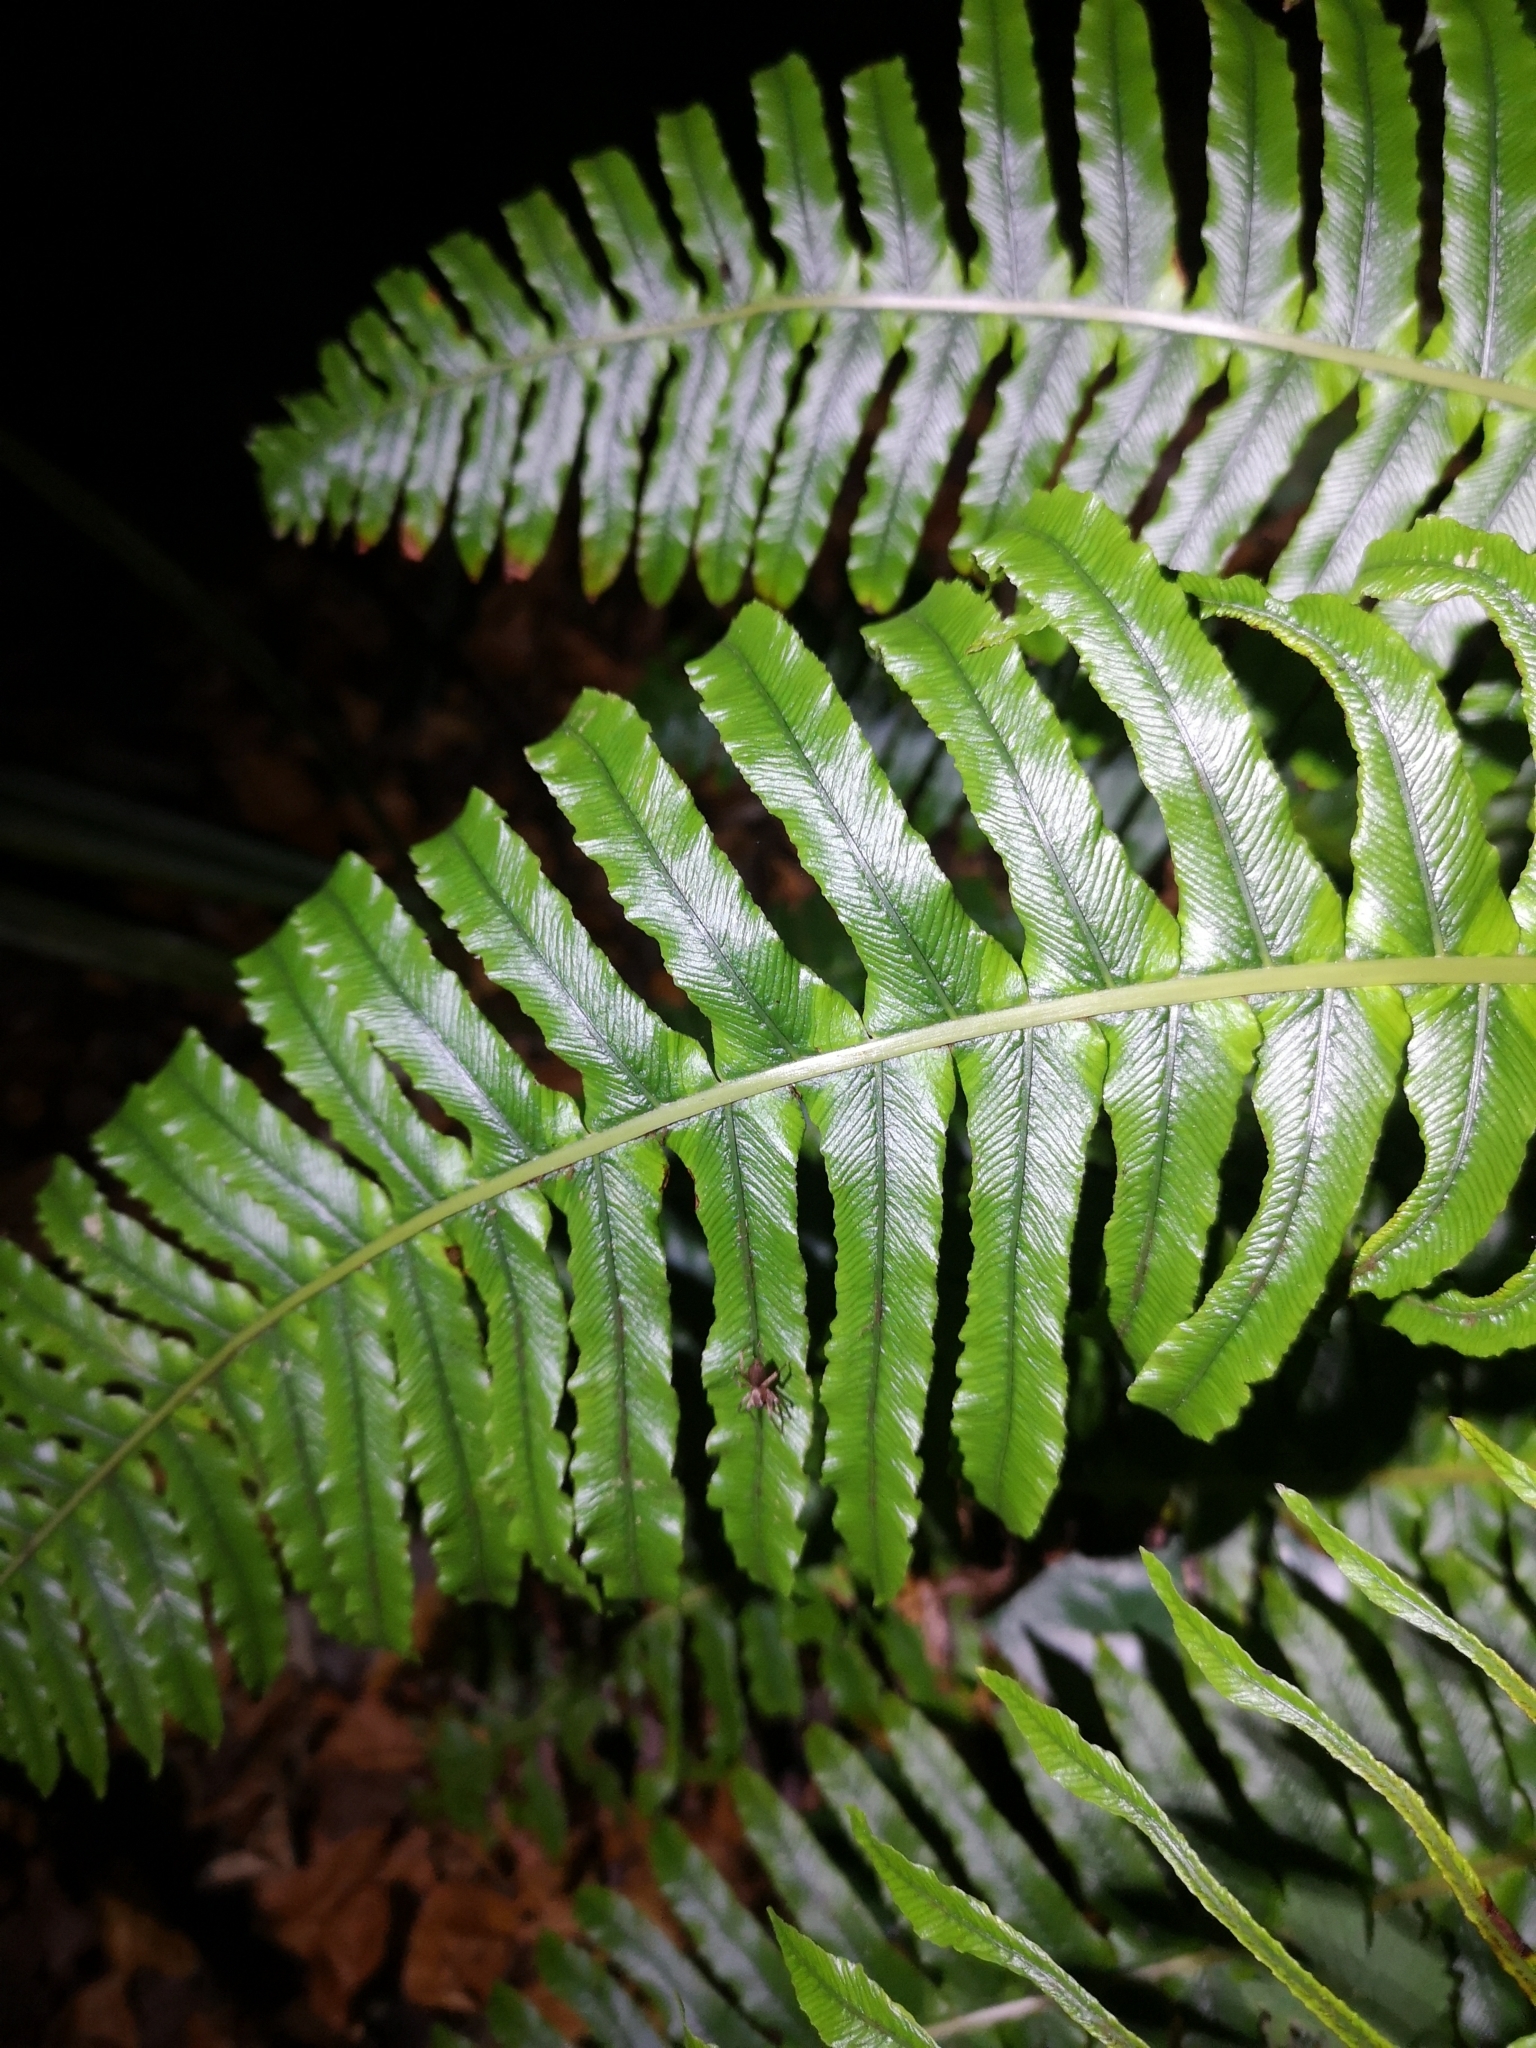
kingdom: Plantae
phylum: Tracheophyta
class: Polypodiopsida
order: Polypodiales
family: Blechnaceae
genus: Lomaria
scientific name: Lomaria discolor
